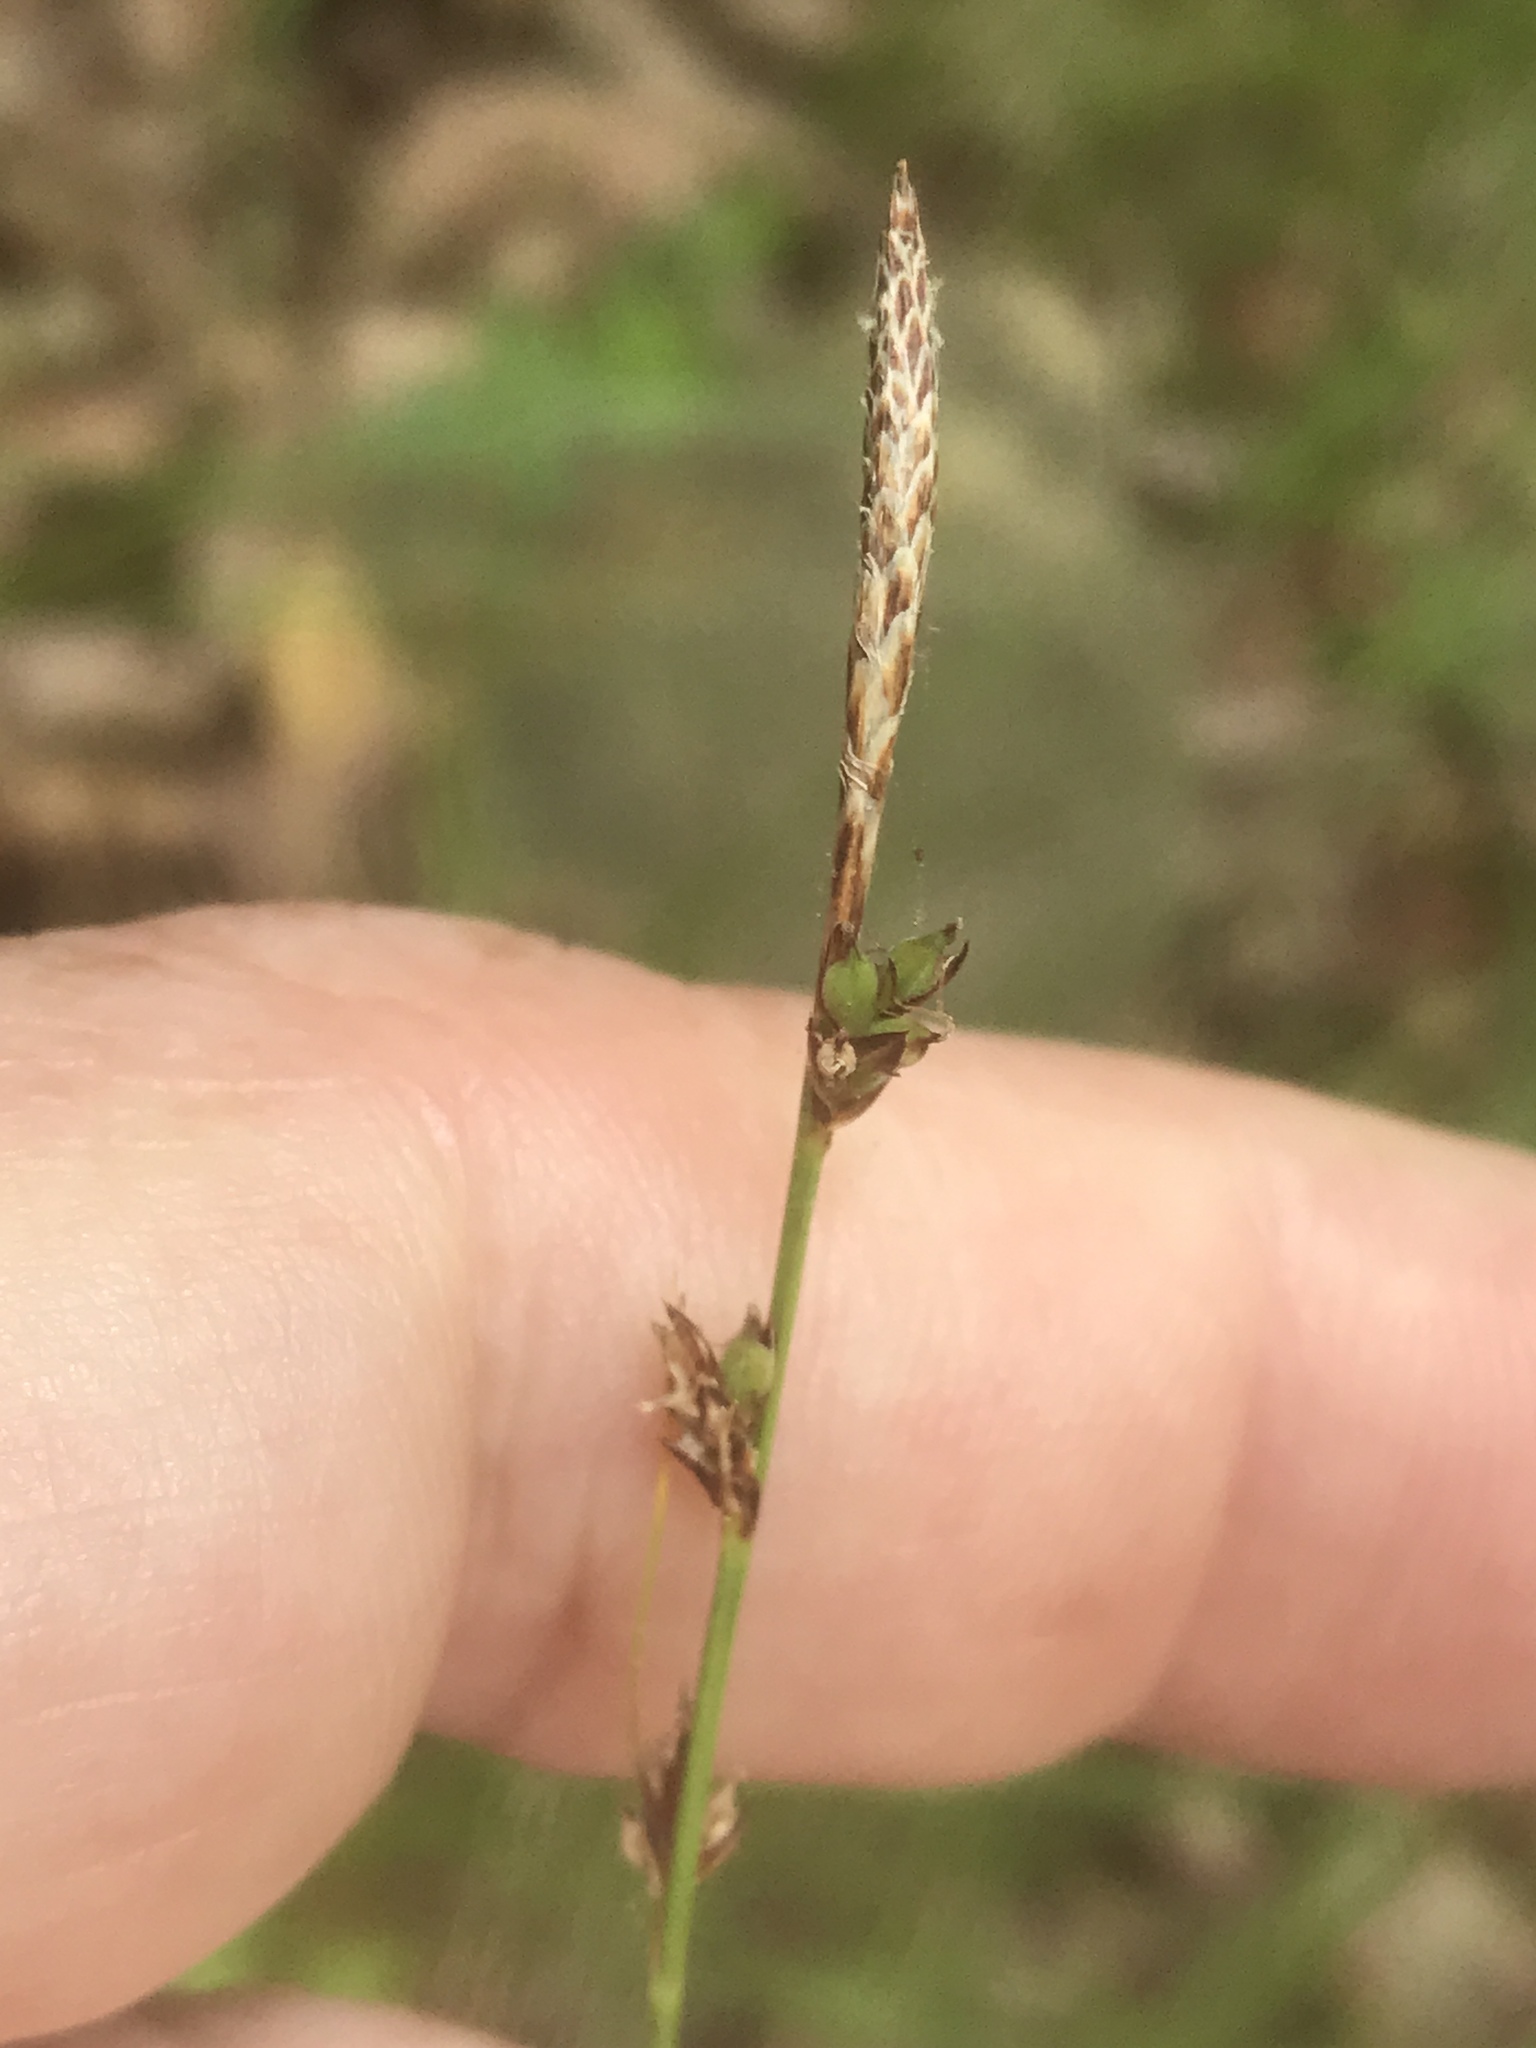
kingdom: Plantae
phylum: Tracheophyta
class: Liliopsida
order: Poales
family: Cyperaceae
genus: Carex
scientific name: Carex pensylvanica
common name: Common oak sedge
